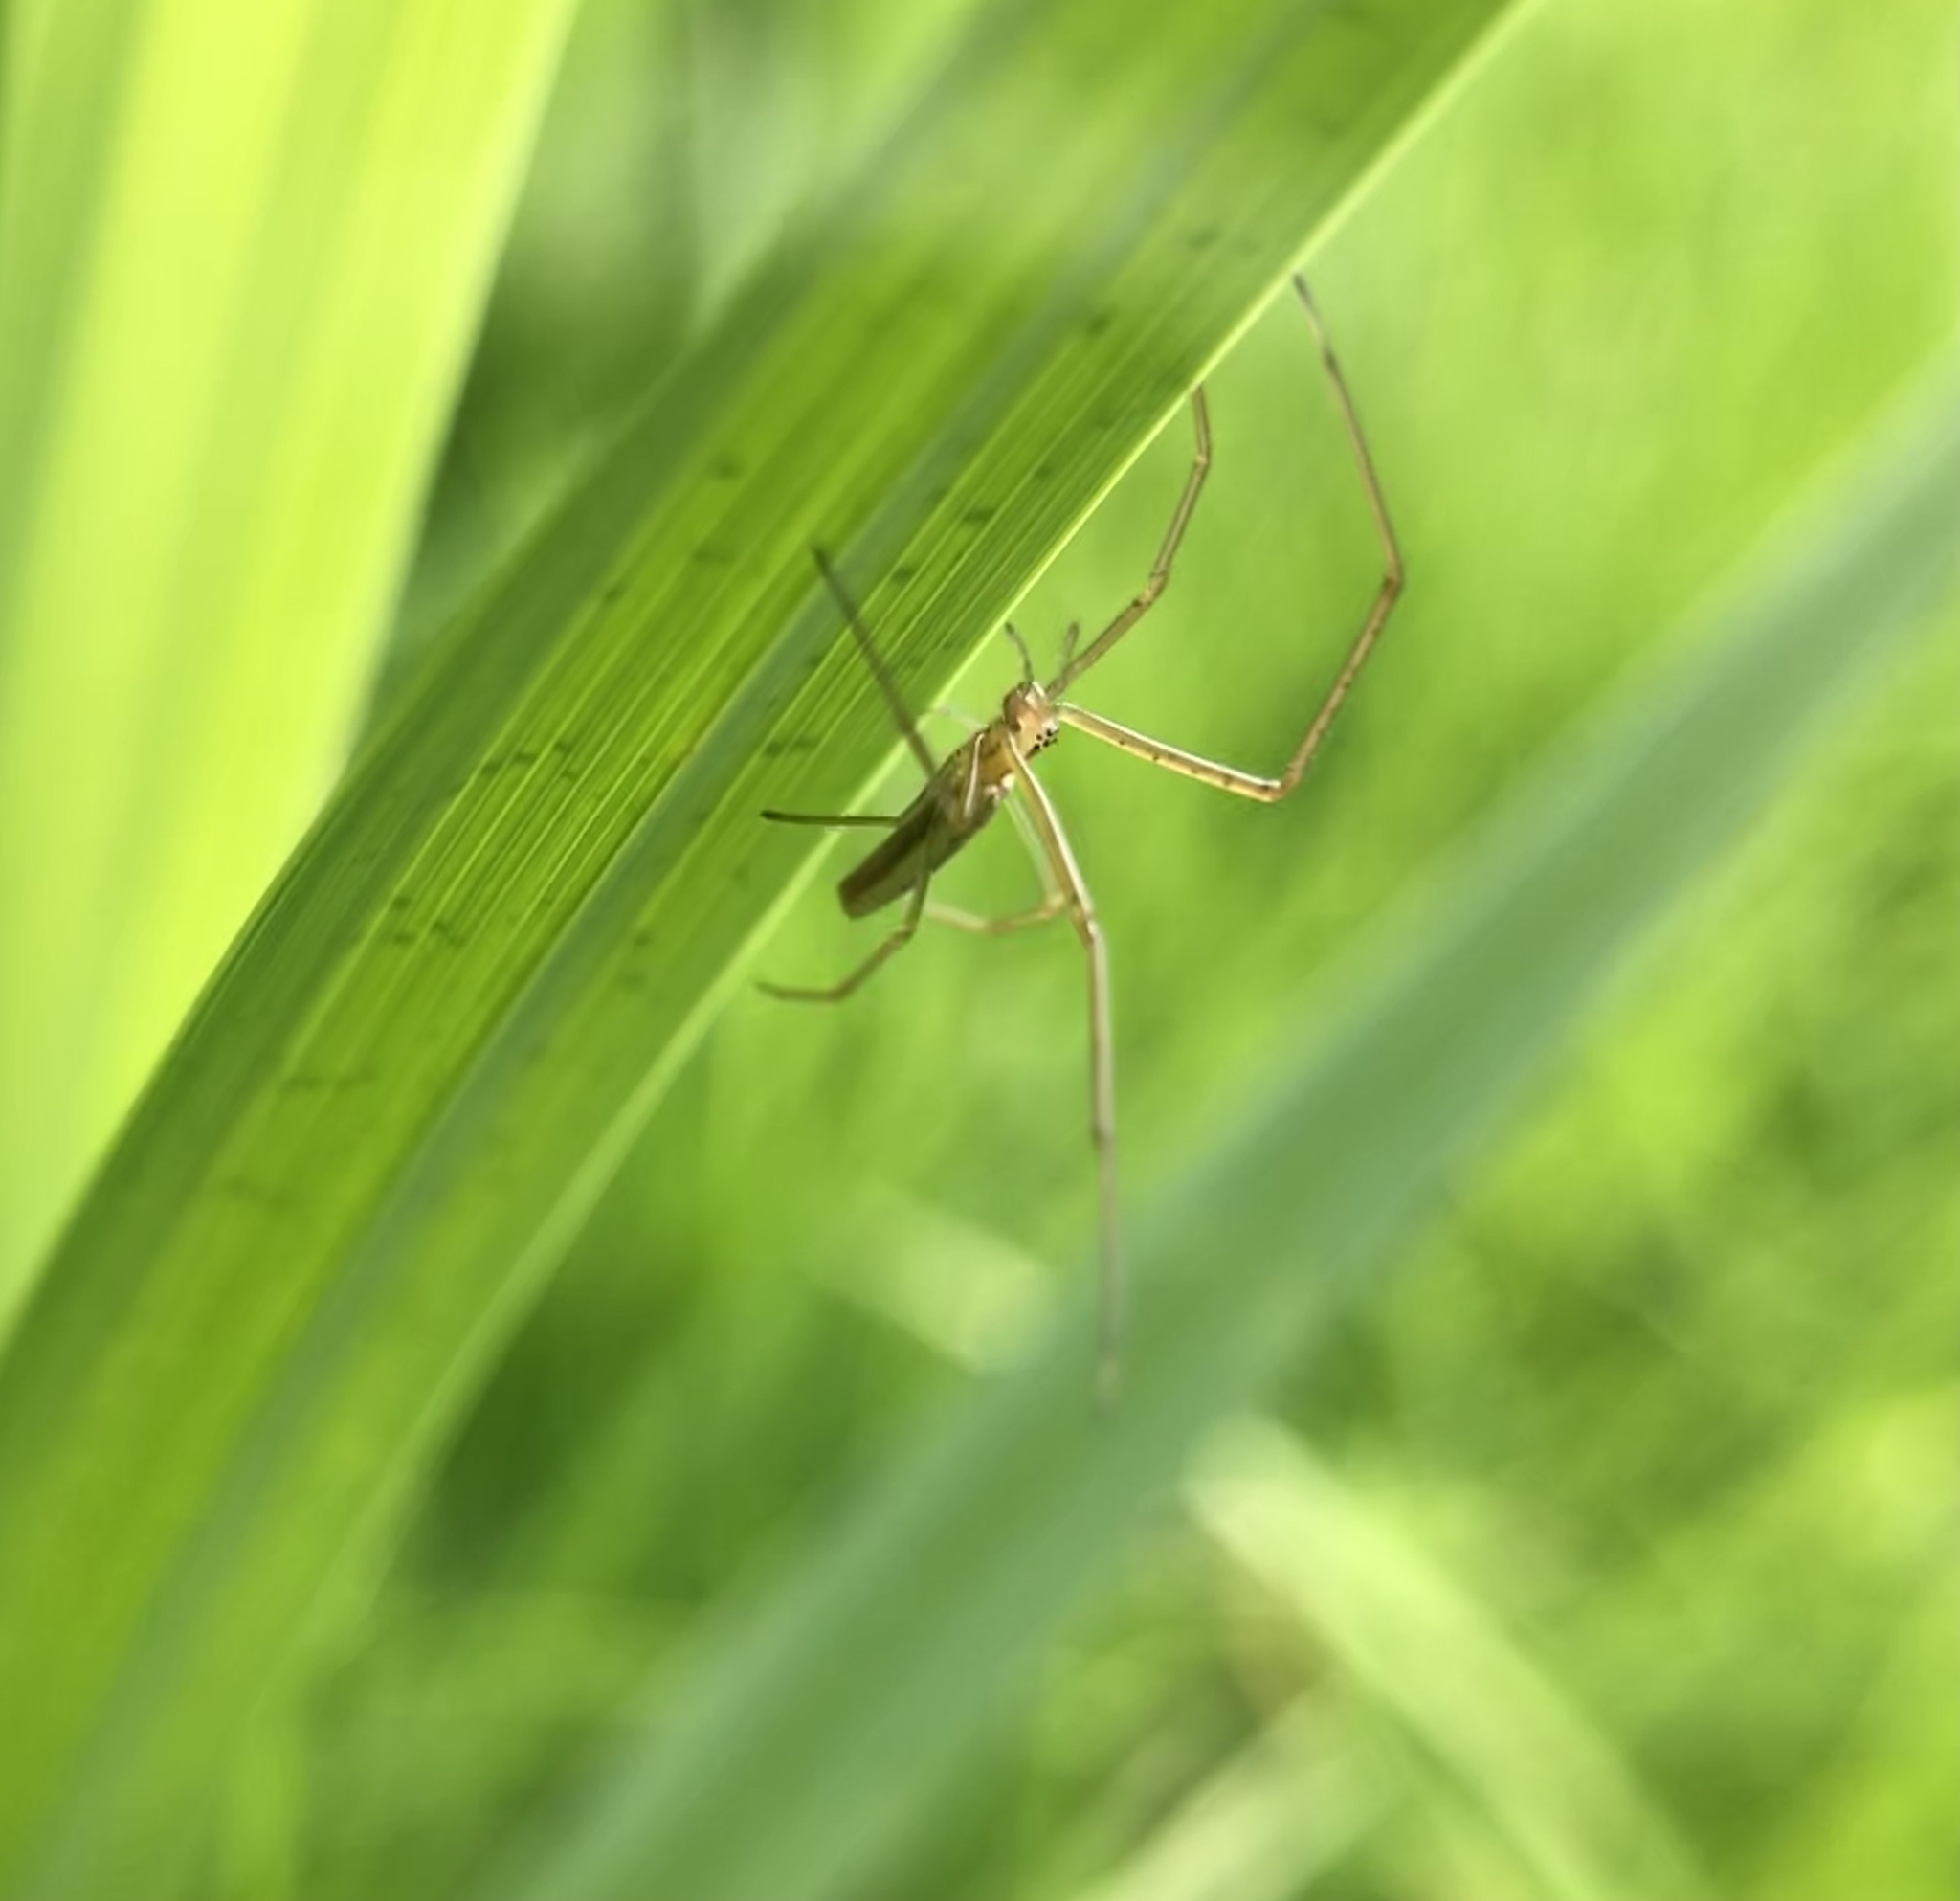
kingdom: Animalia
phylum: Arthropoda
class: Arachnida
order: Araneae
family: Tetragnathidae
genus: Tetragnatha
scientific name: Tetragnatha
